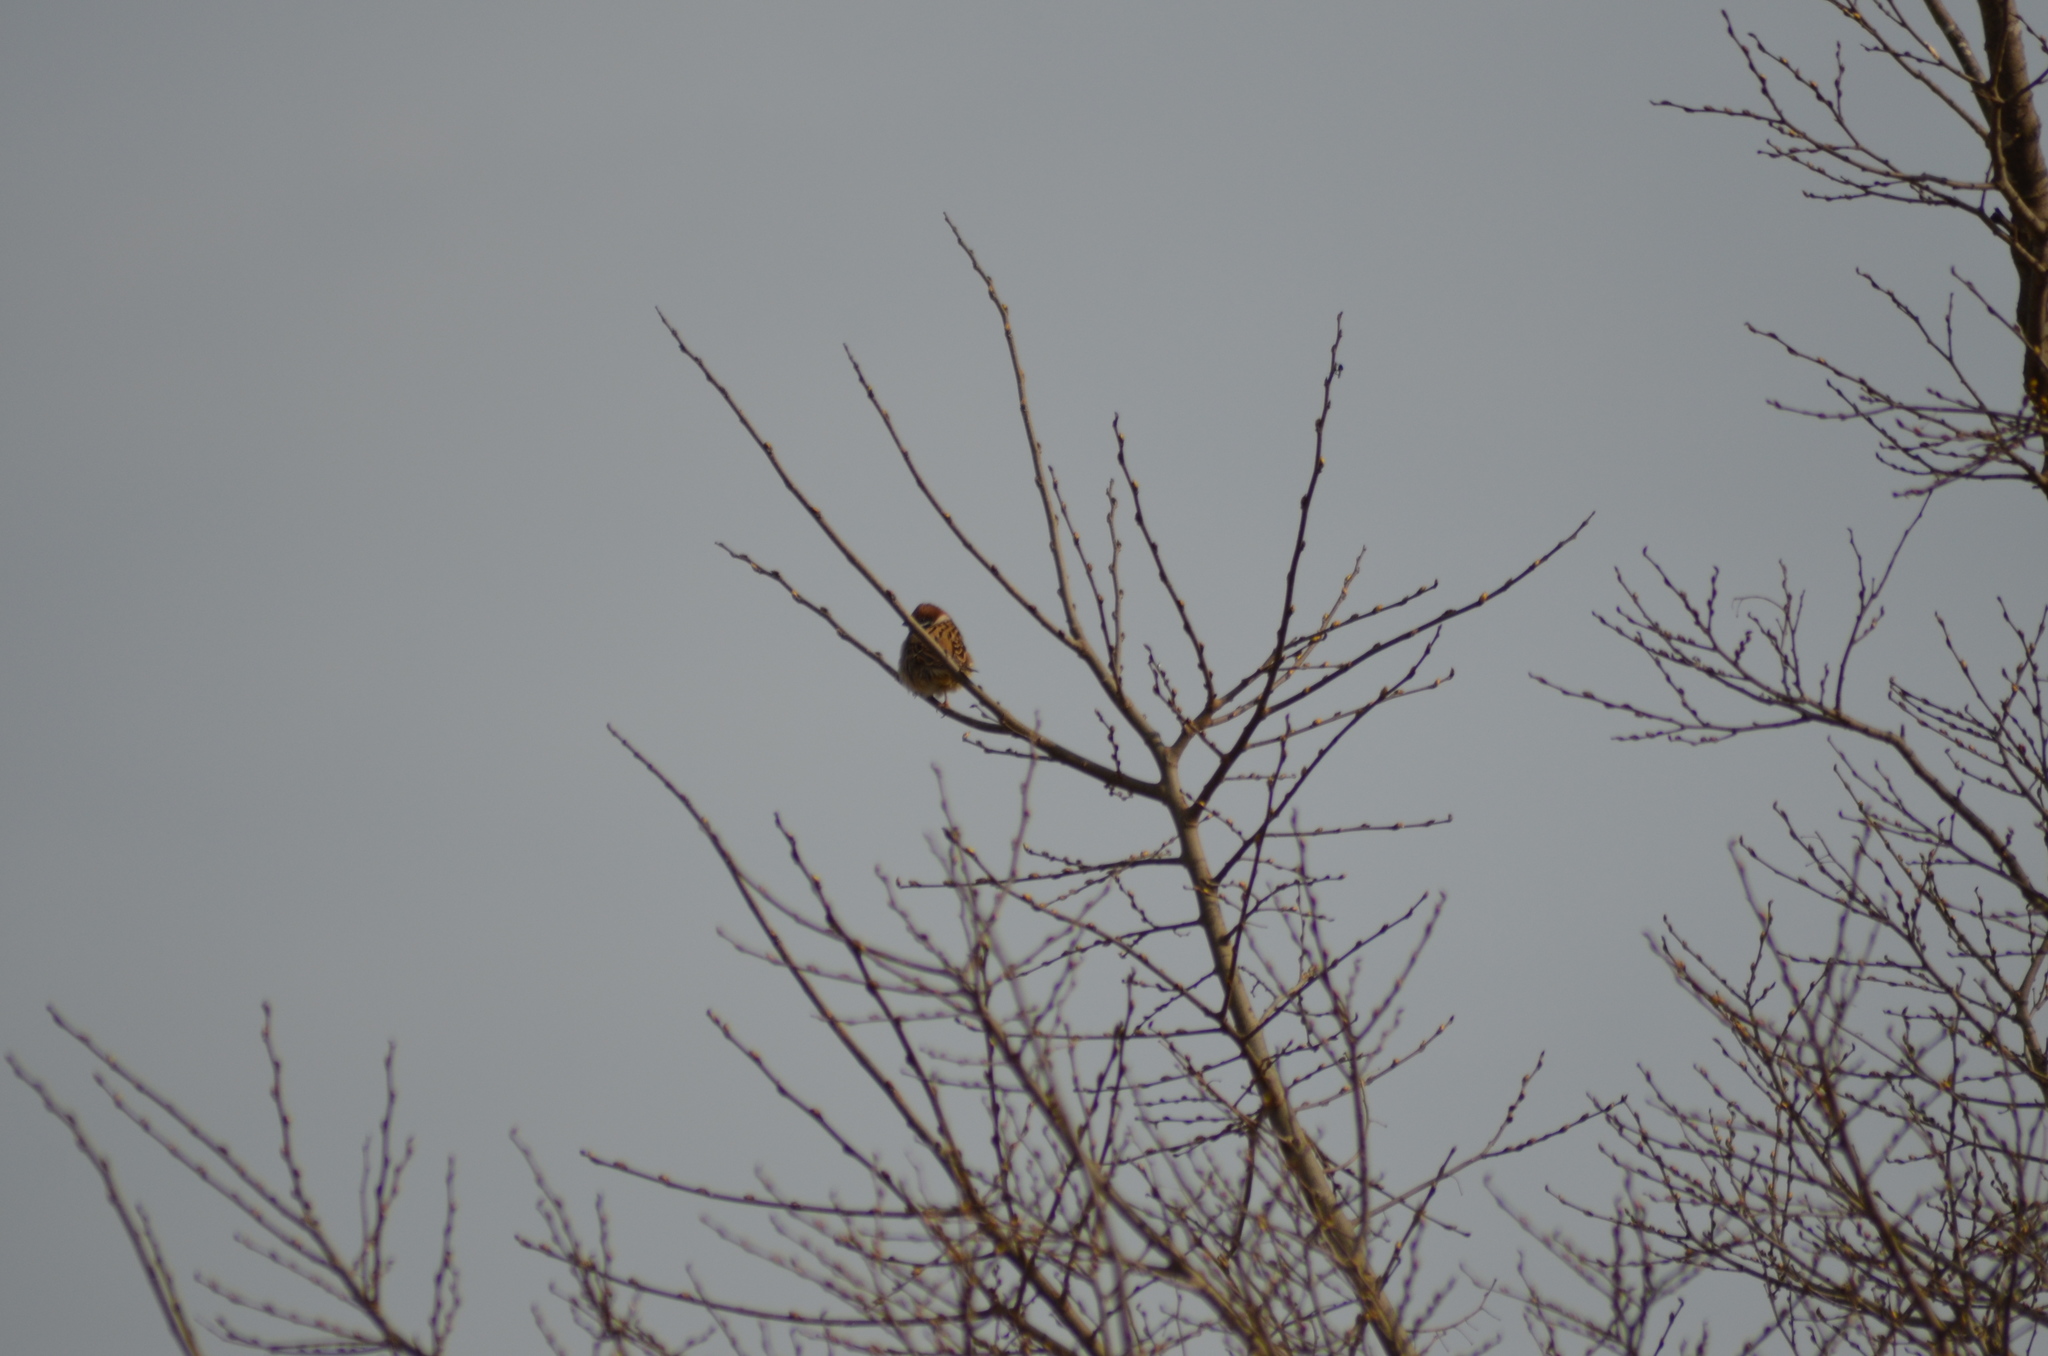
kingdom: Animalia
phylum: Chordata
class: Aves
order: Passeriformes
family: Passeridae
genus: Passer
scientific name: Passer montanus
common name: Eurasian tree sparrow
